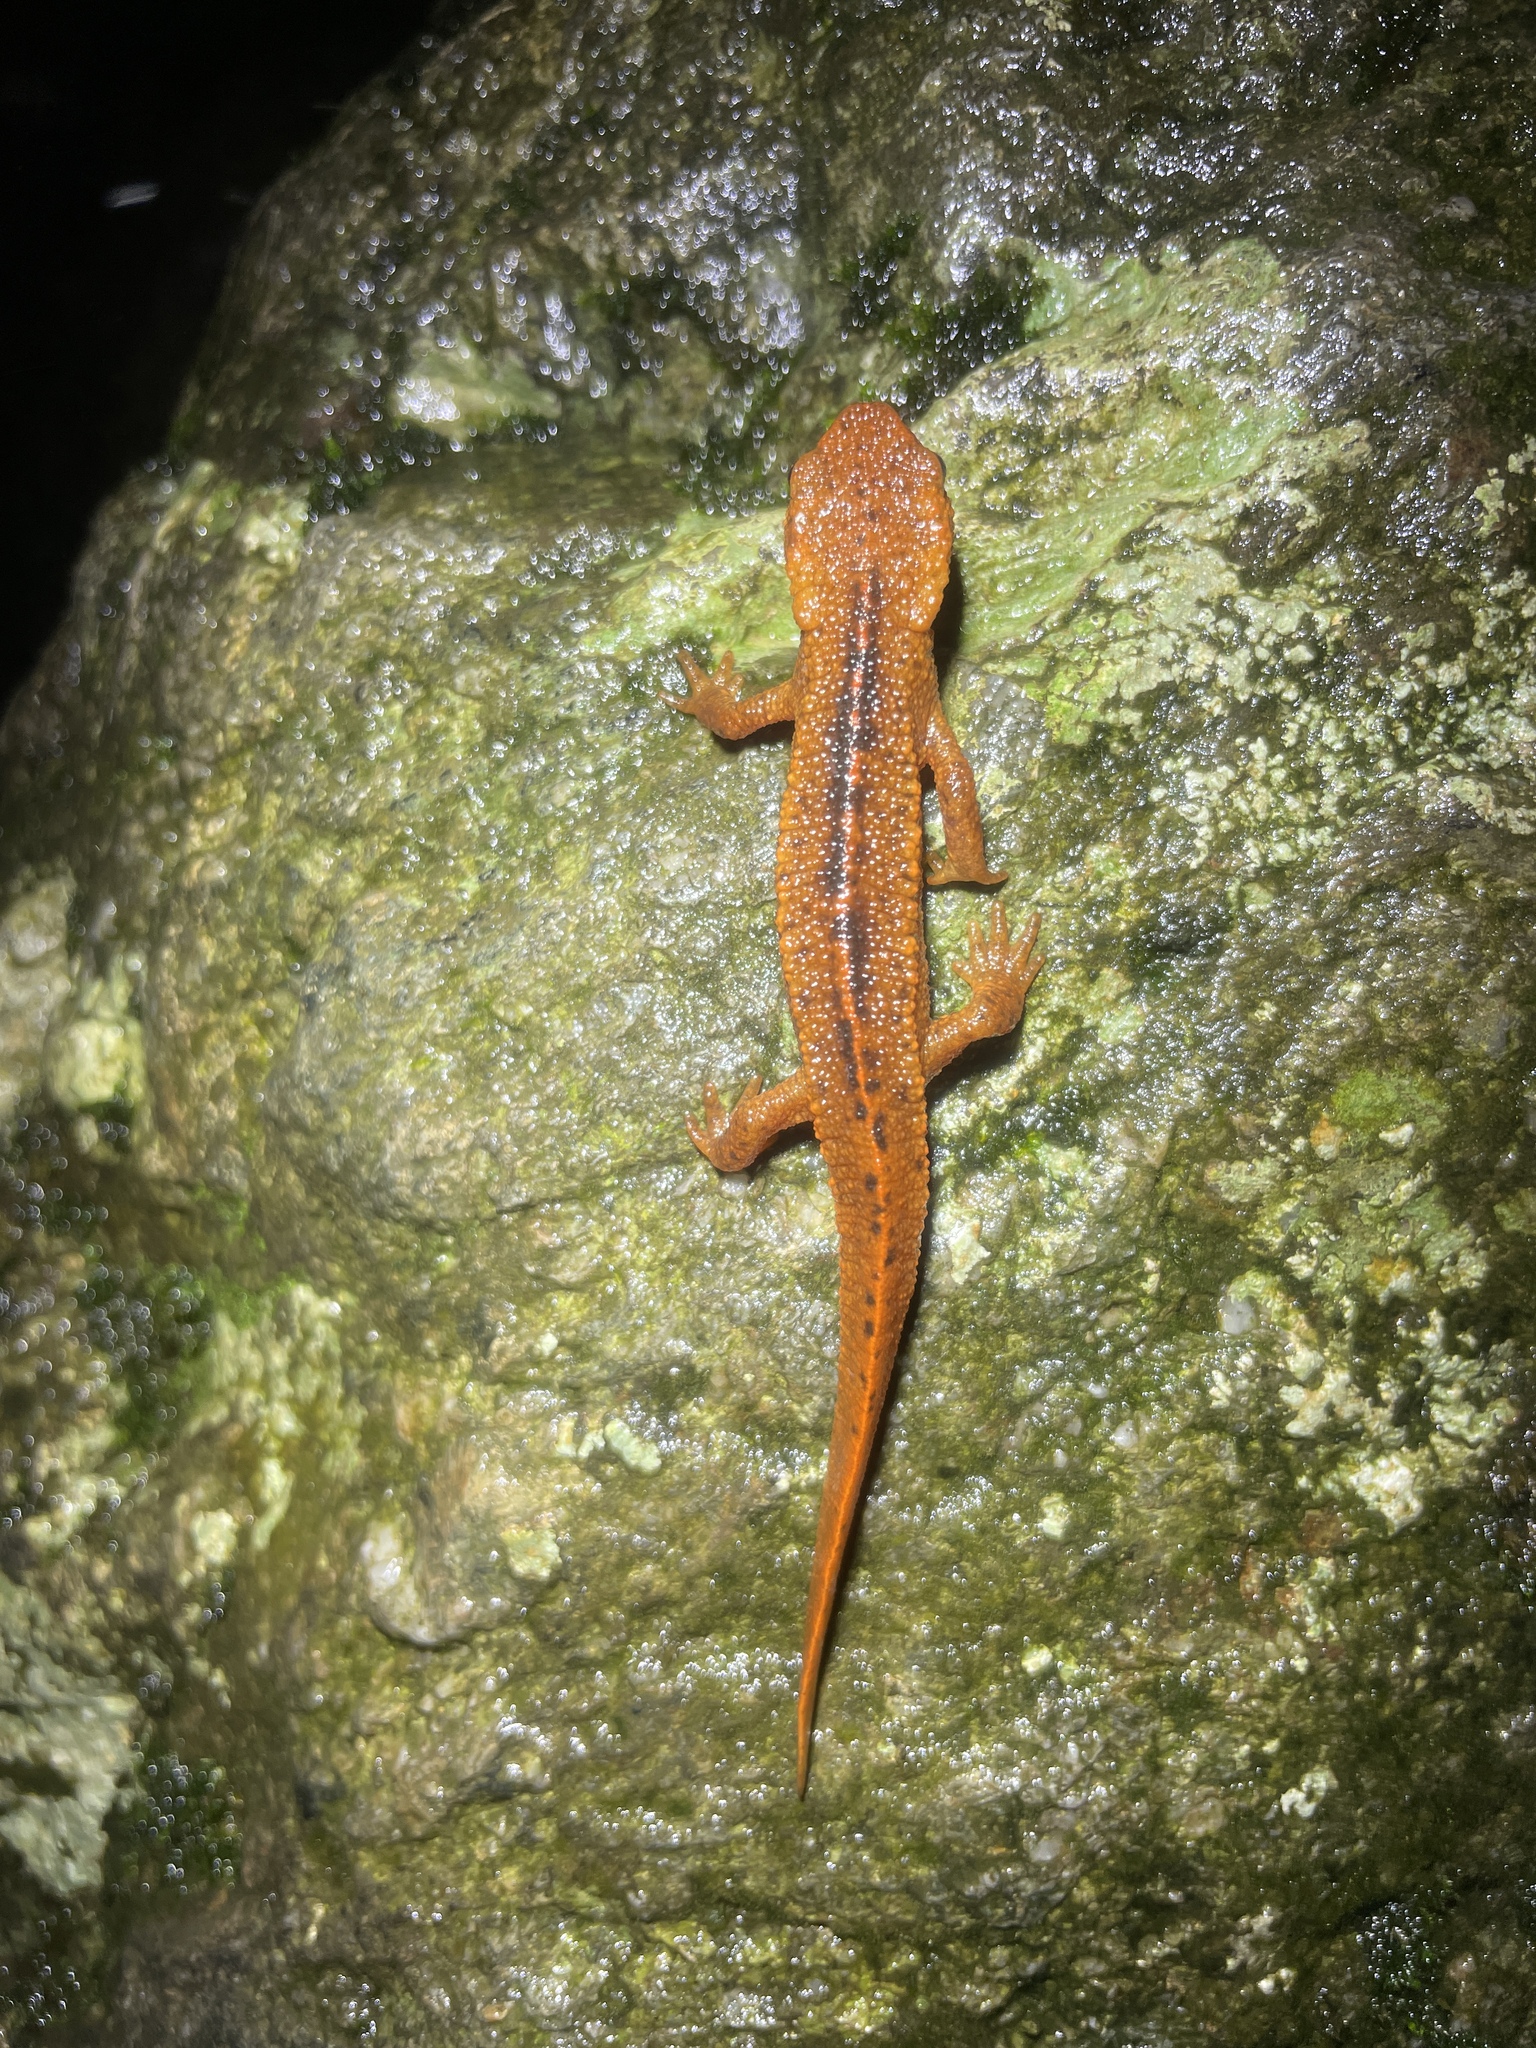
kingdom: Animalia
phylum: Chordata
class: Amphibia
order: Caudata
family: Salamandridae
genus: Paramesotriton
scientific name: Paramesotriton hongkongensis
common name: Hong kong warty newt
